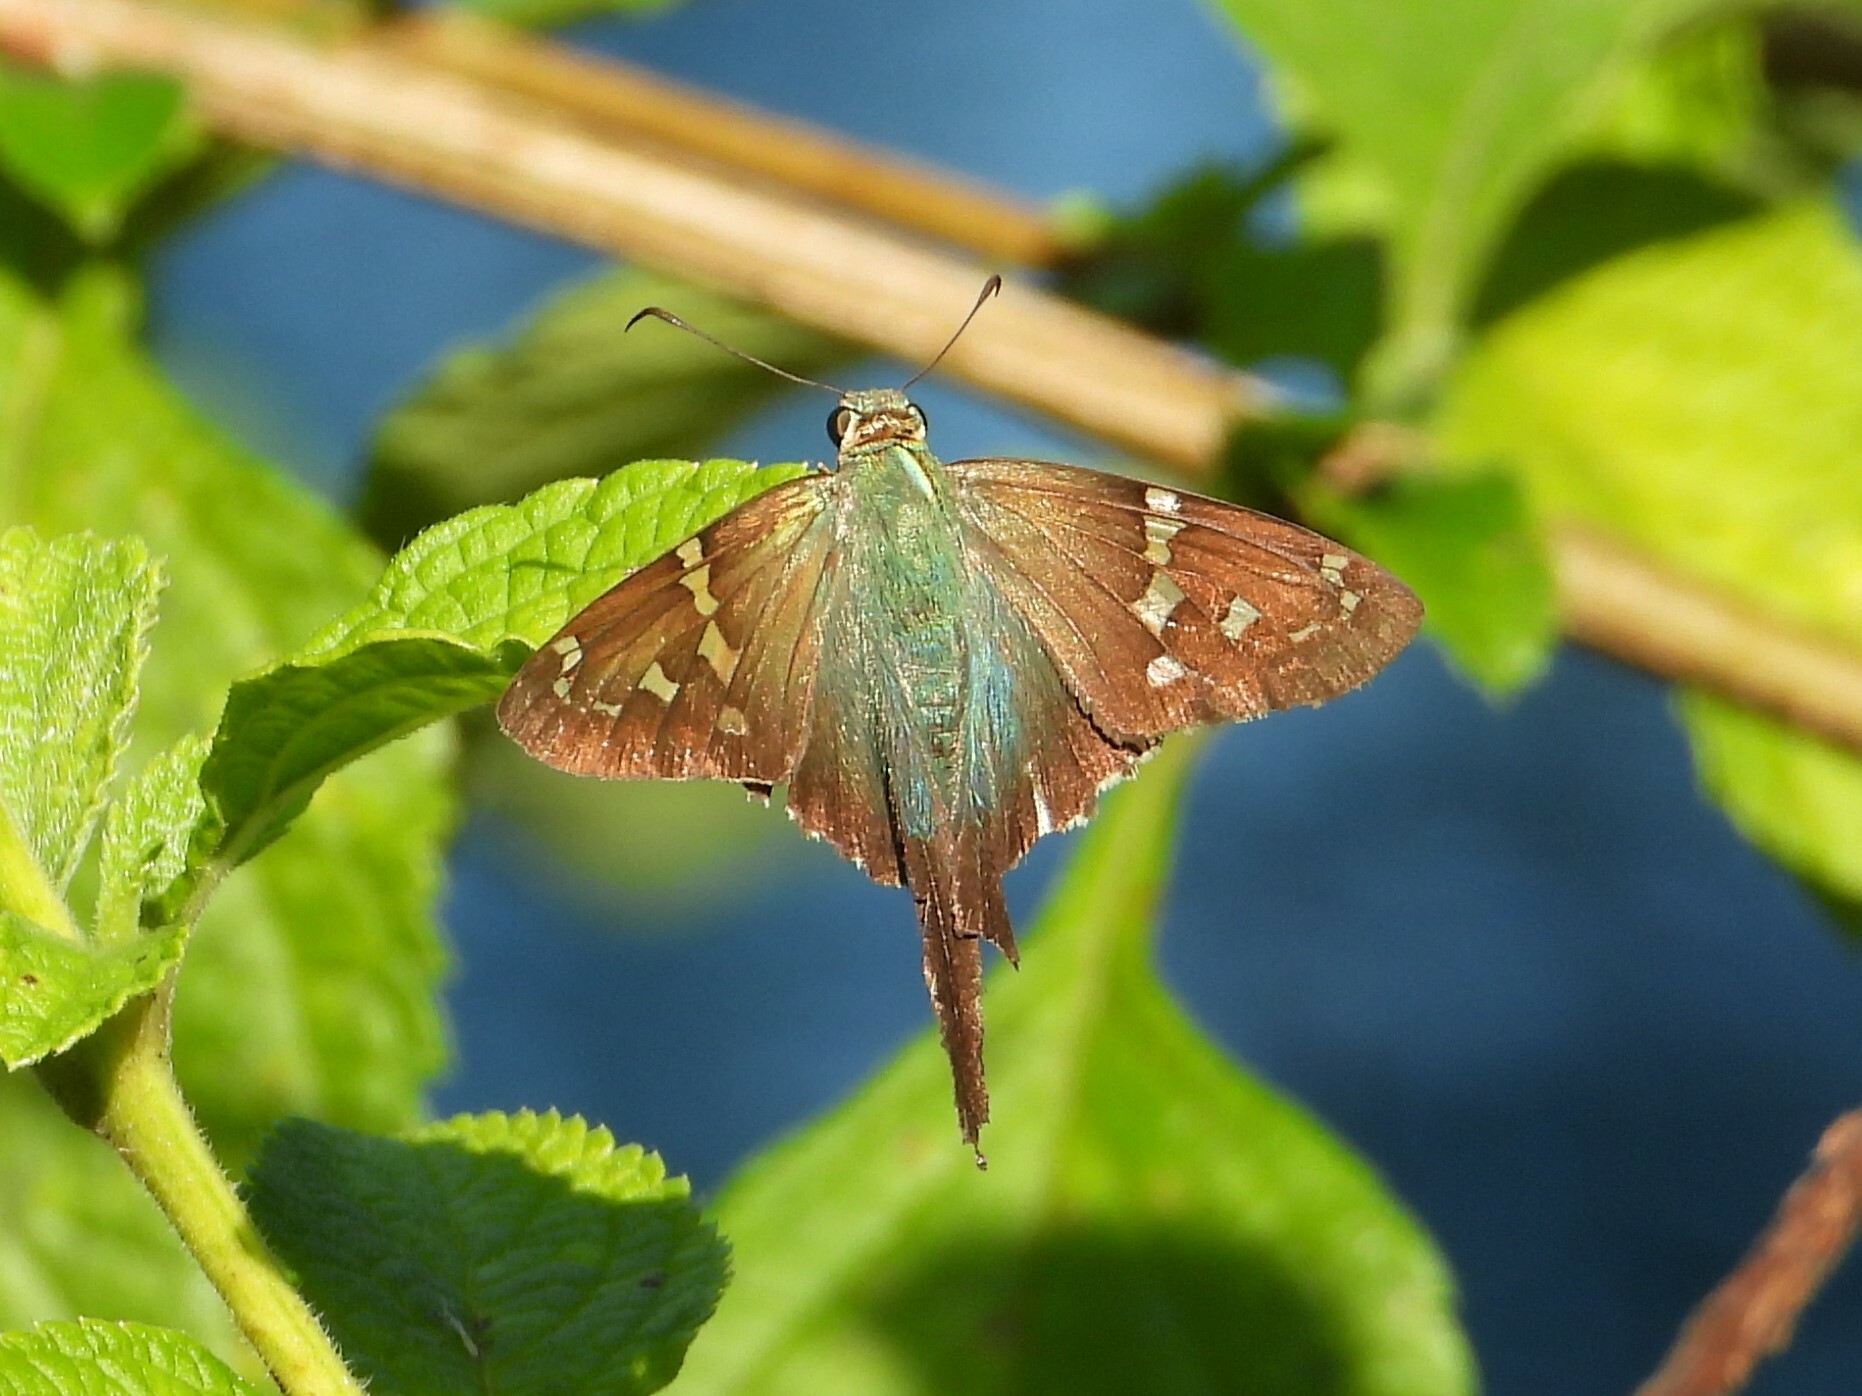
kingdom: Animalia
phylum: Arthropoda
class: Insecta
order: Lepidoptera
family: Hesperiidae
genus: Urbanus
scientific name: Urbanus proteus
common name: Long-tailed skipper
